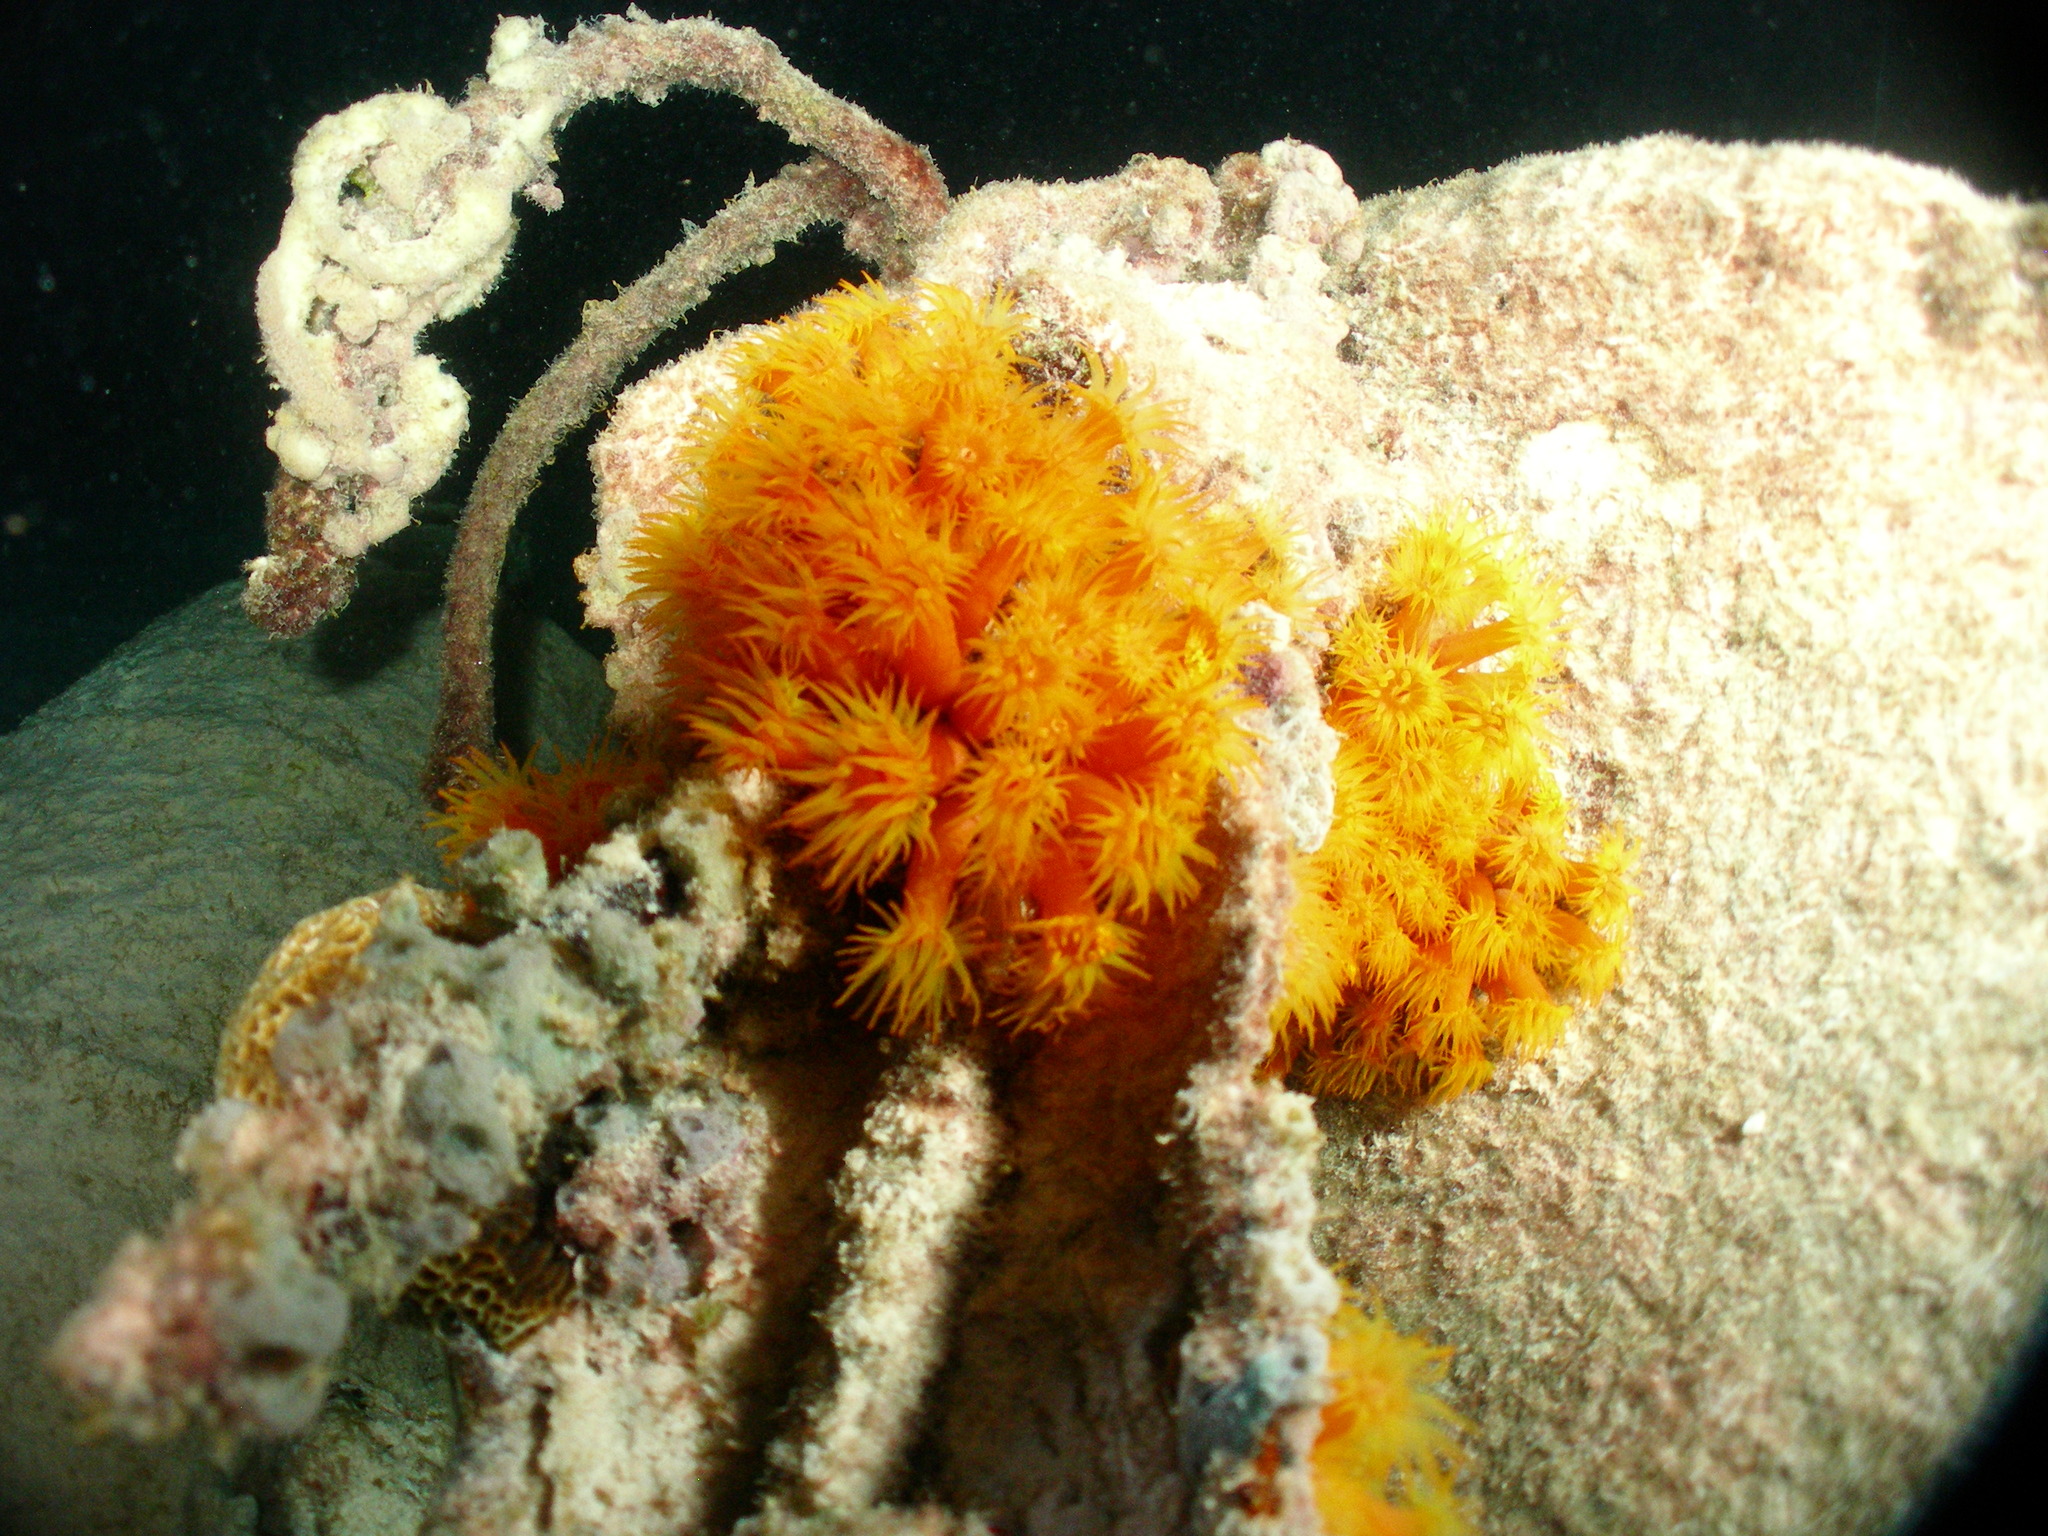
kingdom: Animalia
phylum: Cnidaria
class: Anthozoa
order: Scleractinia
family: Dendrophylliidae
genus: Tubastraea
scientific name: Tubastraea coccinea
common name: Orange cup coral
